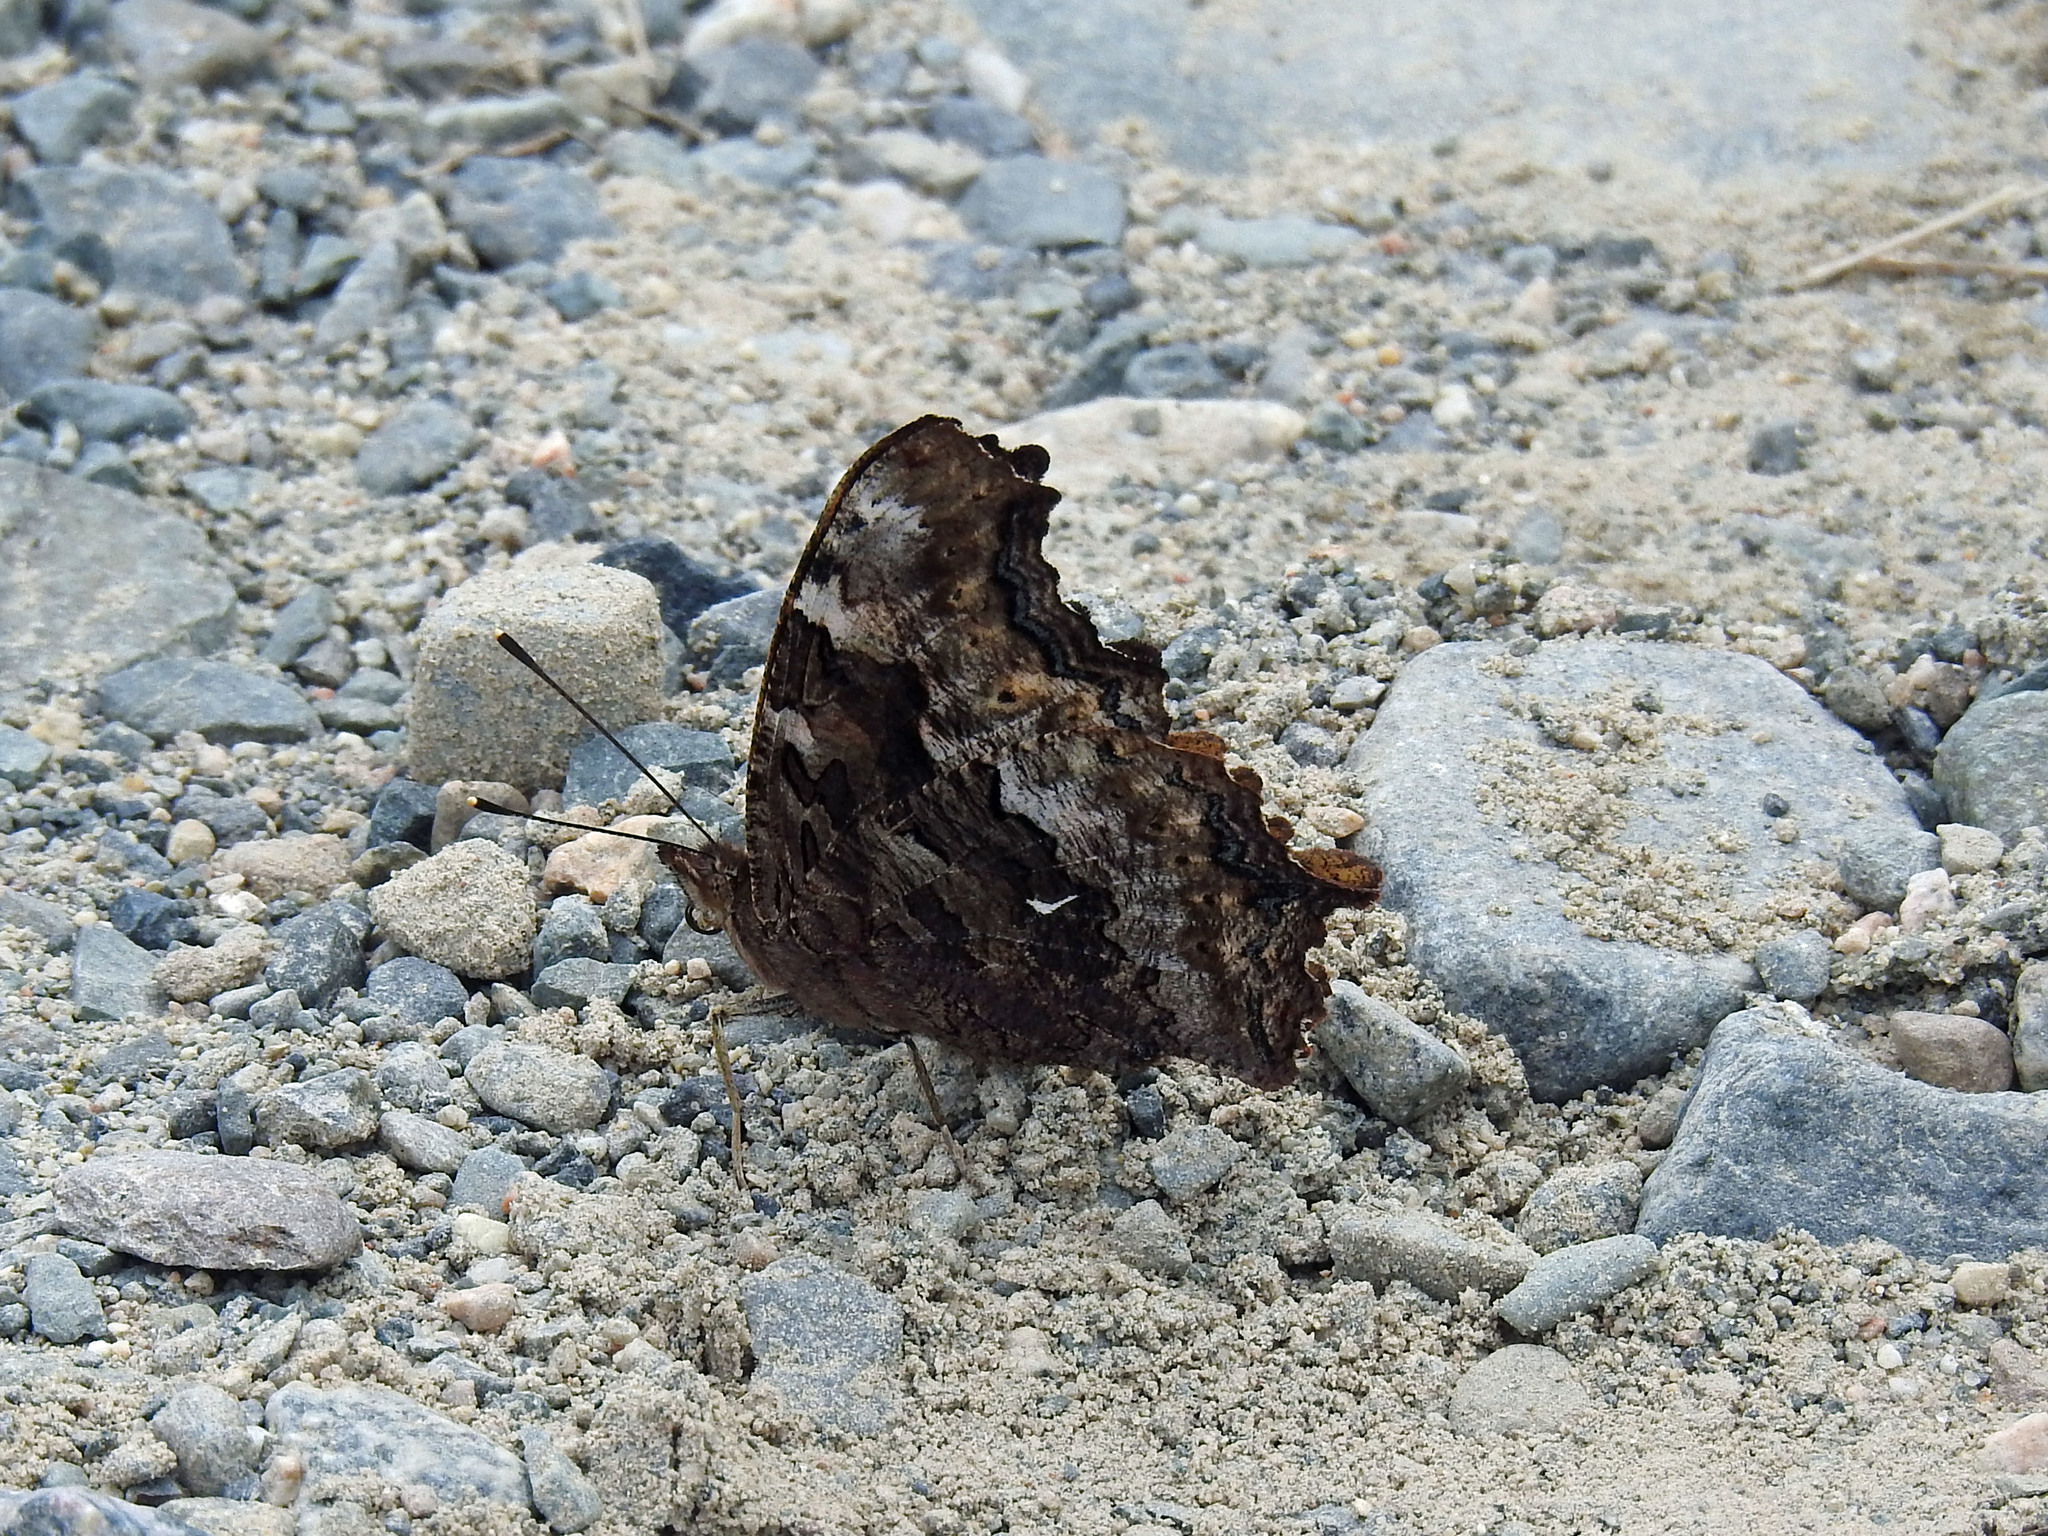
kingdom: Animalia
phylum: Arthropoda
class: Insecta
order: Lepidoptera
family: Nymphalidae
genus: Polygonia
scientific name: Polygonia vaualbum
